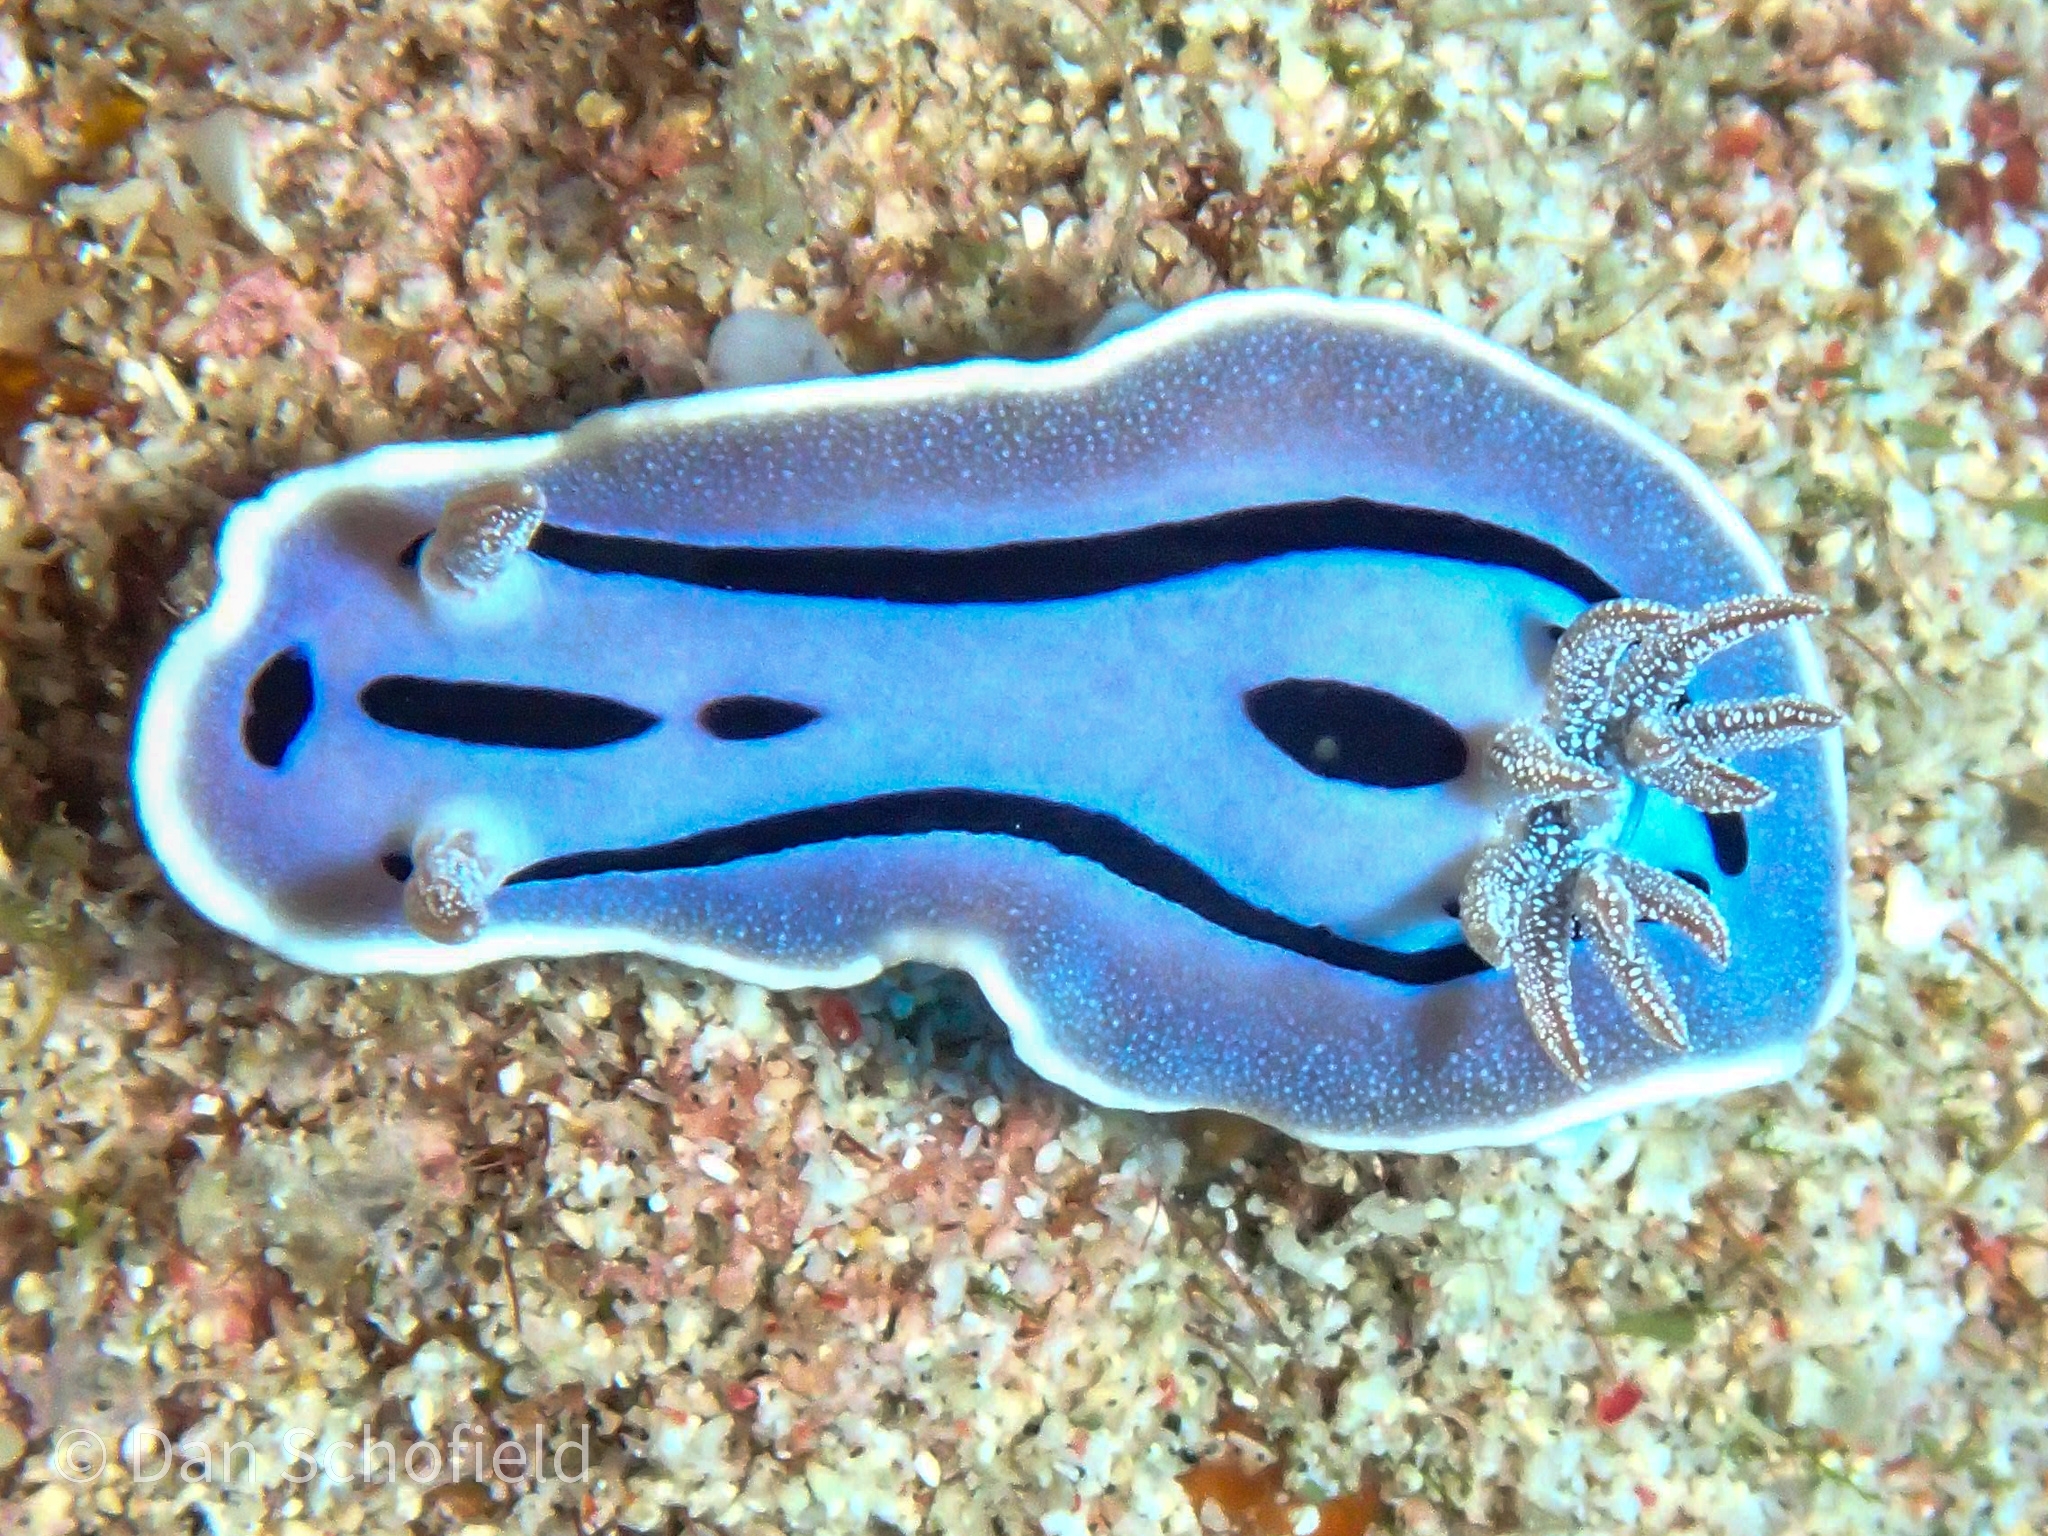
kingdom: Animalia
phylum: Mollusca
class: Gastropoda
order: Nudibranchia
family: Chromodorididae
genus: Chromodoris
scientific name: Chromodoris willani
